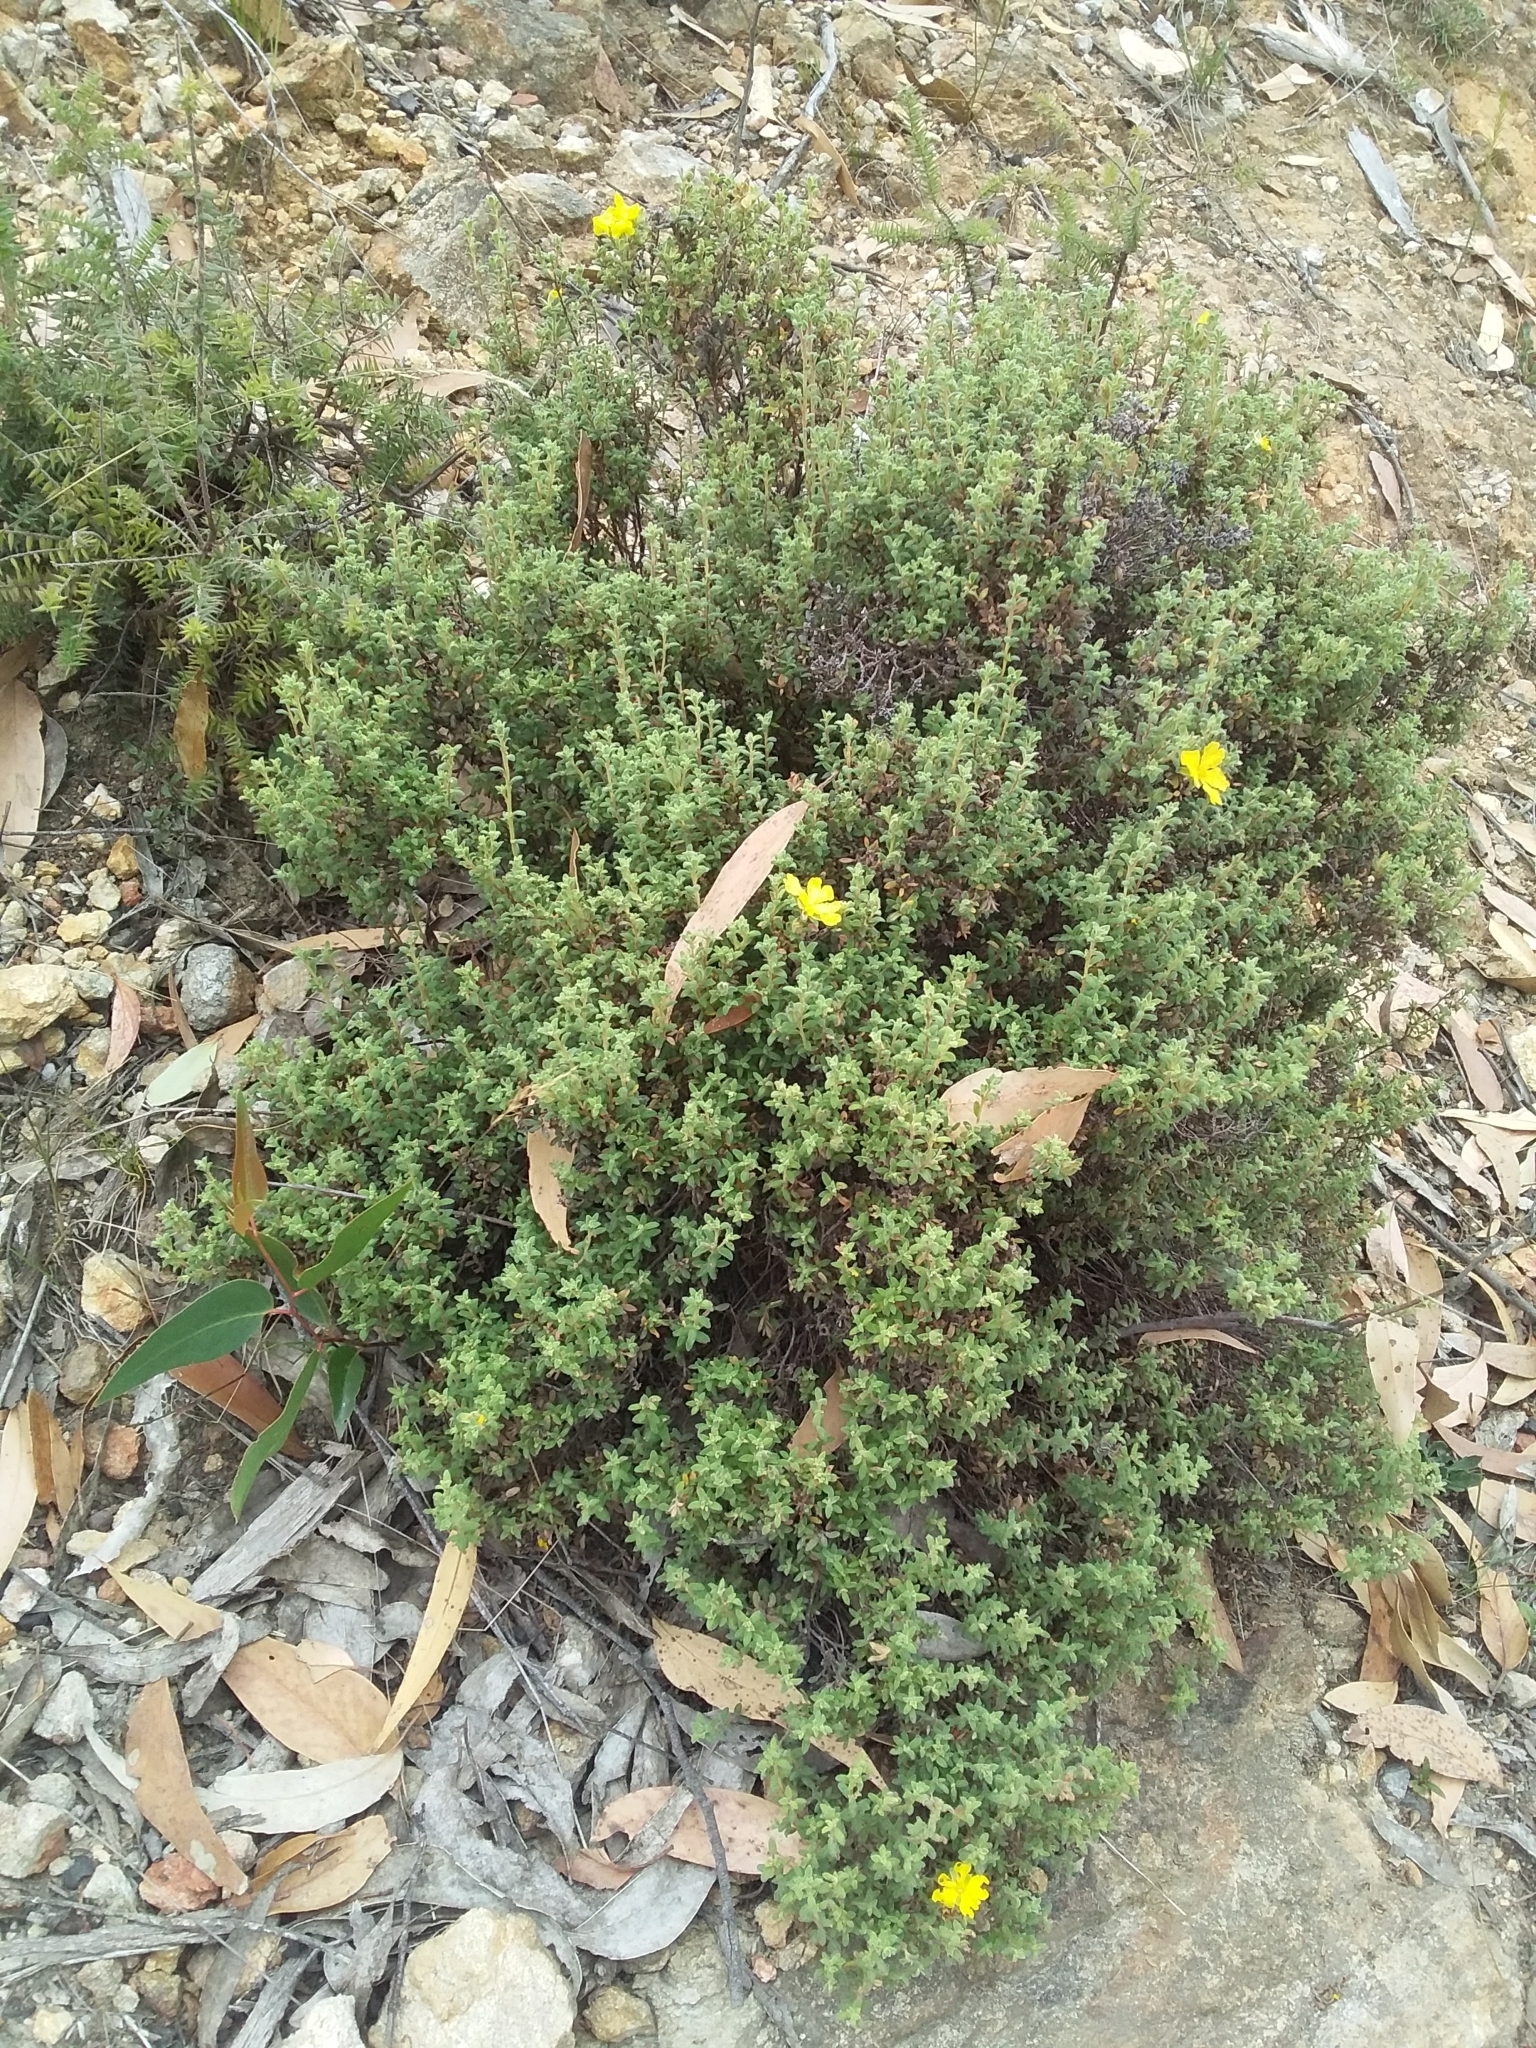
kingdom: Plantae
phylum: Tracheophyta
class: Magnoliopsida
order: Dilleniales
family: Dilleniaceae
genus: Hibbertia
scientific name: Hibbertia crinita
